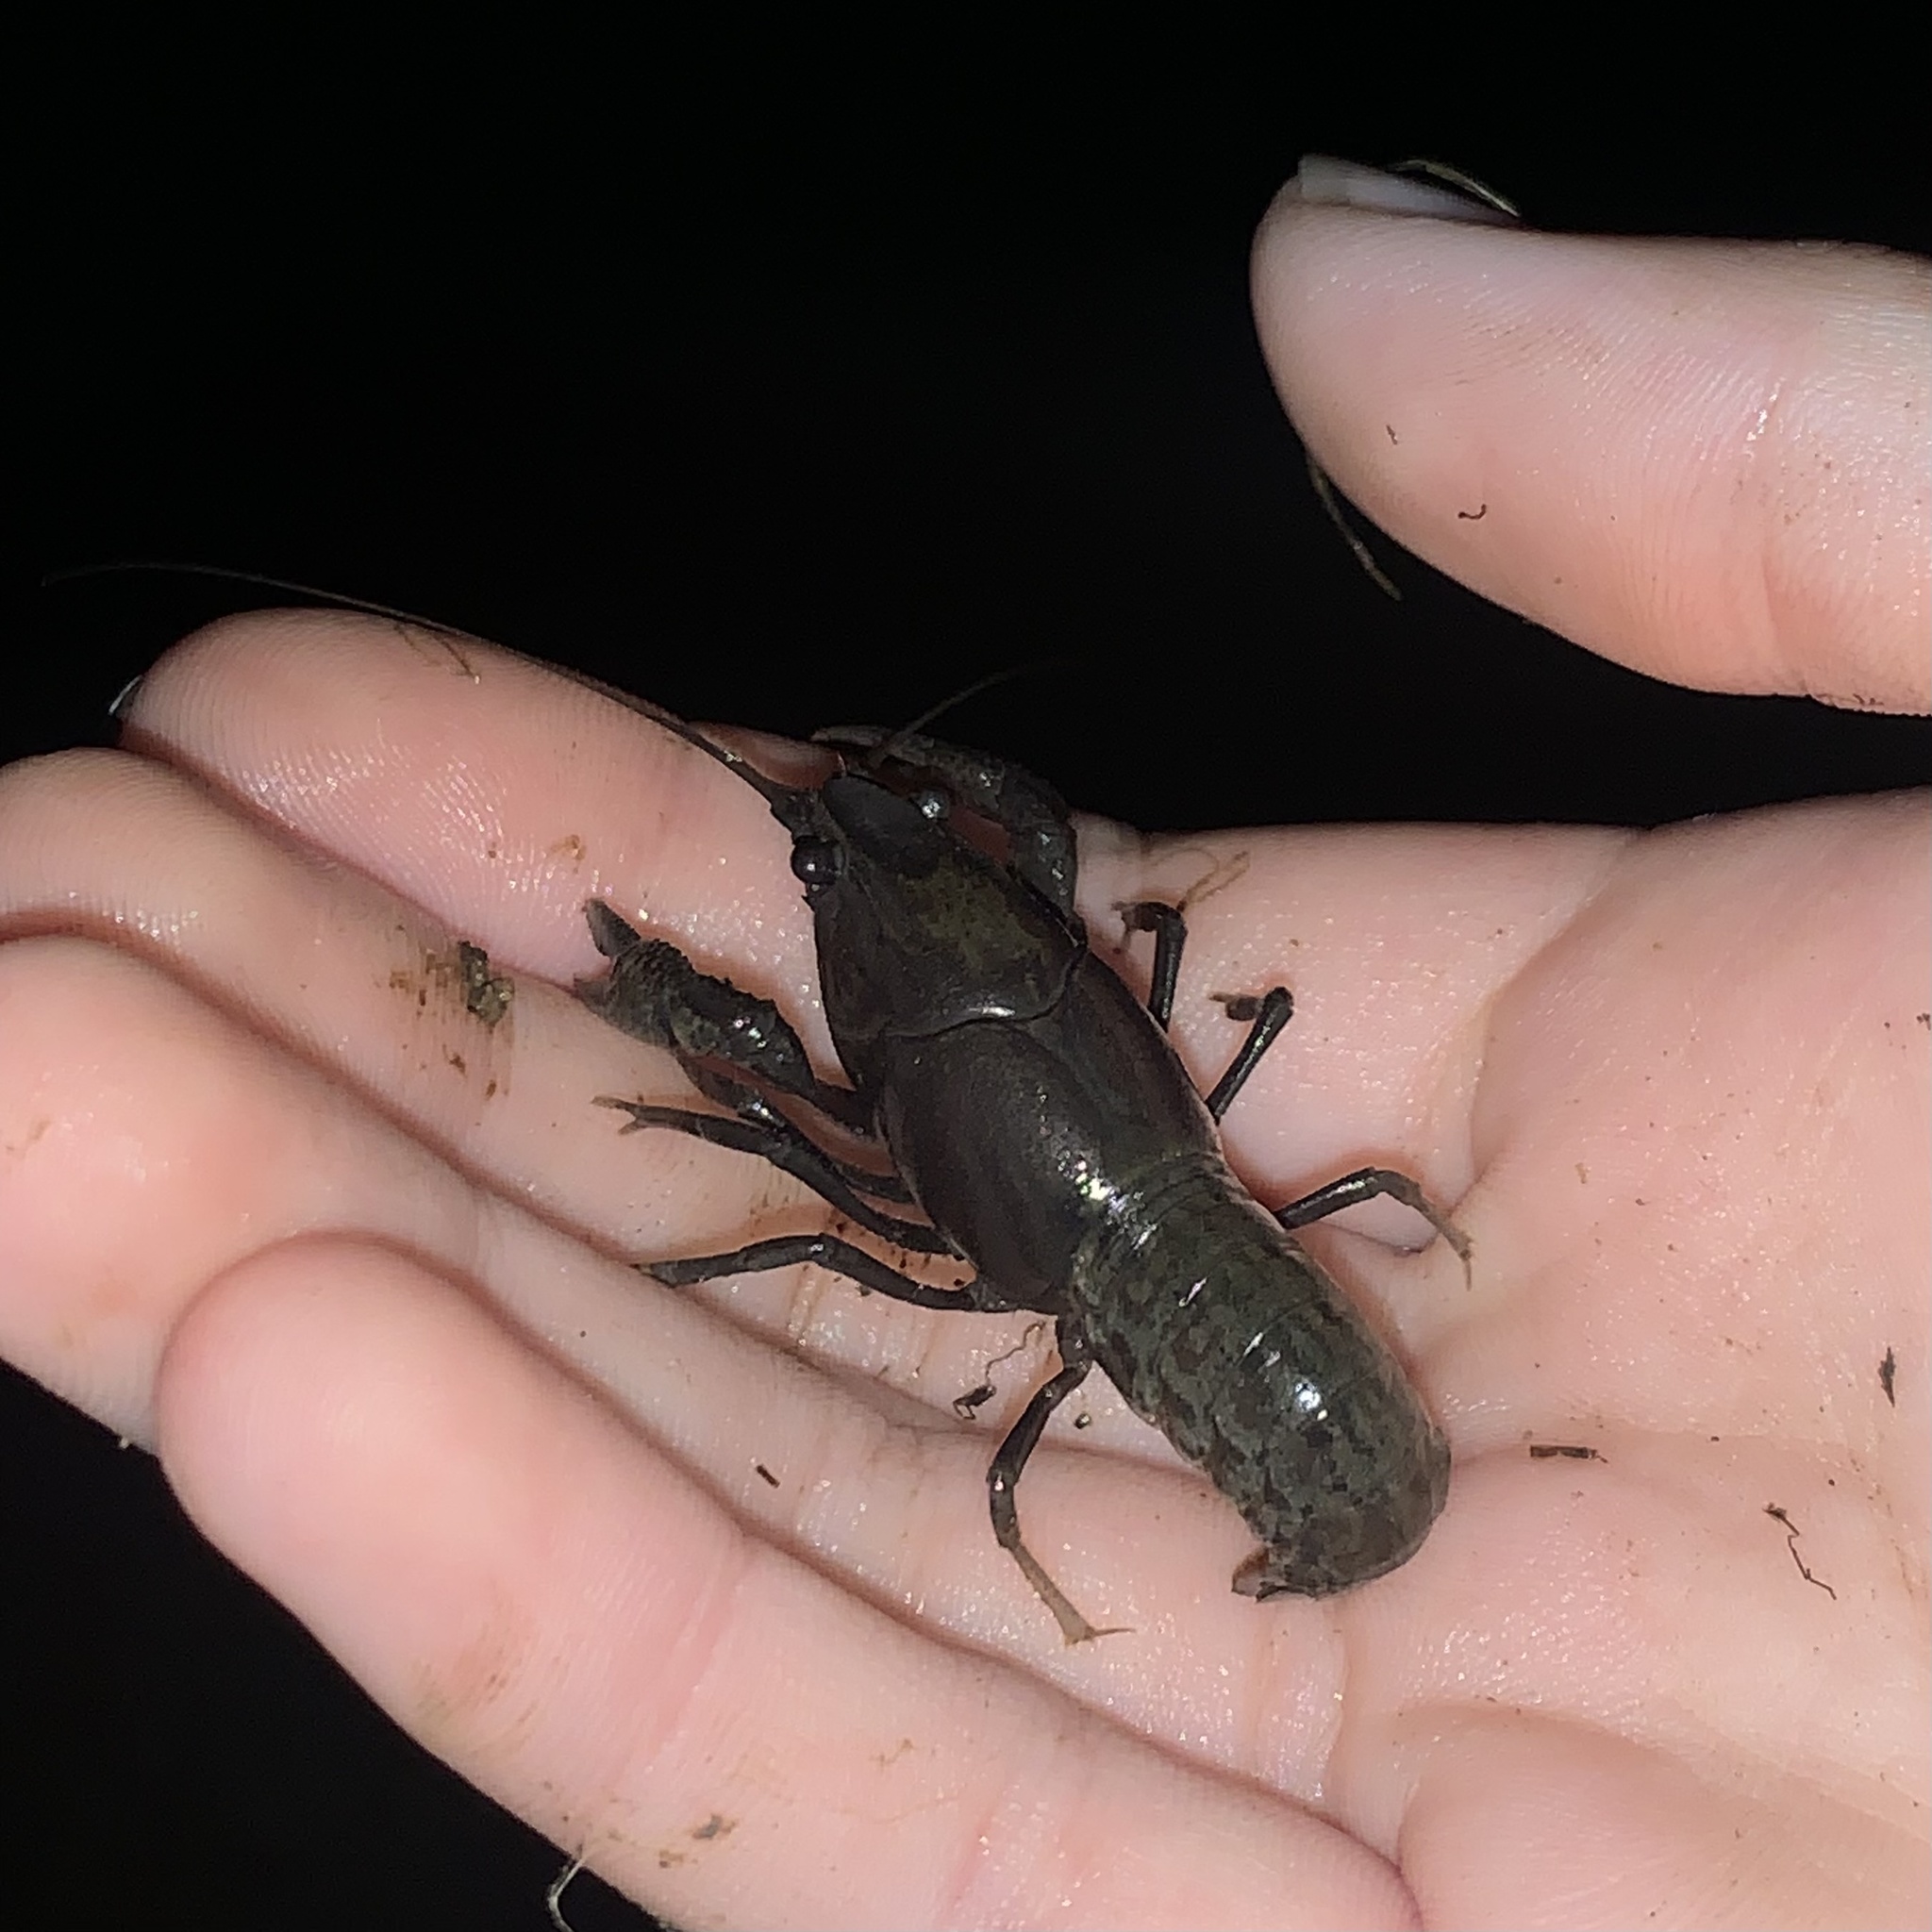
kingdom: Animalia
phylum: Arthropoda
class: Malacostraca
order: Decapoda
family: Cambaridae
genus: Procambarus
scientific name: Procambarus curdi
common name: Red river burrowing crayfish
